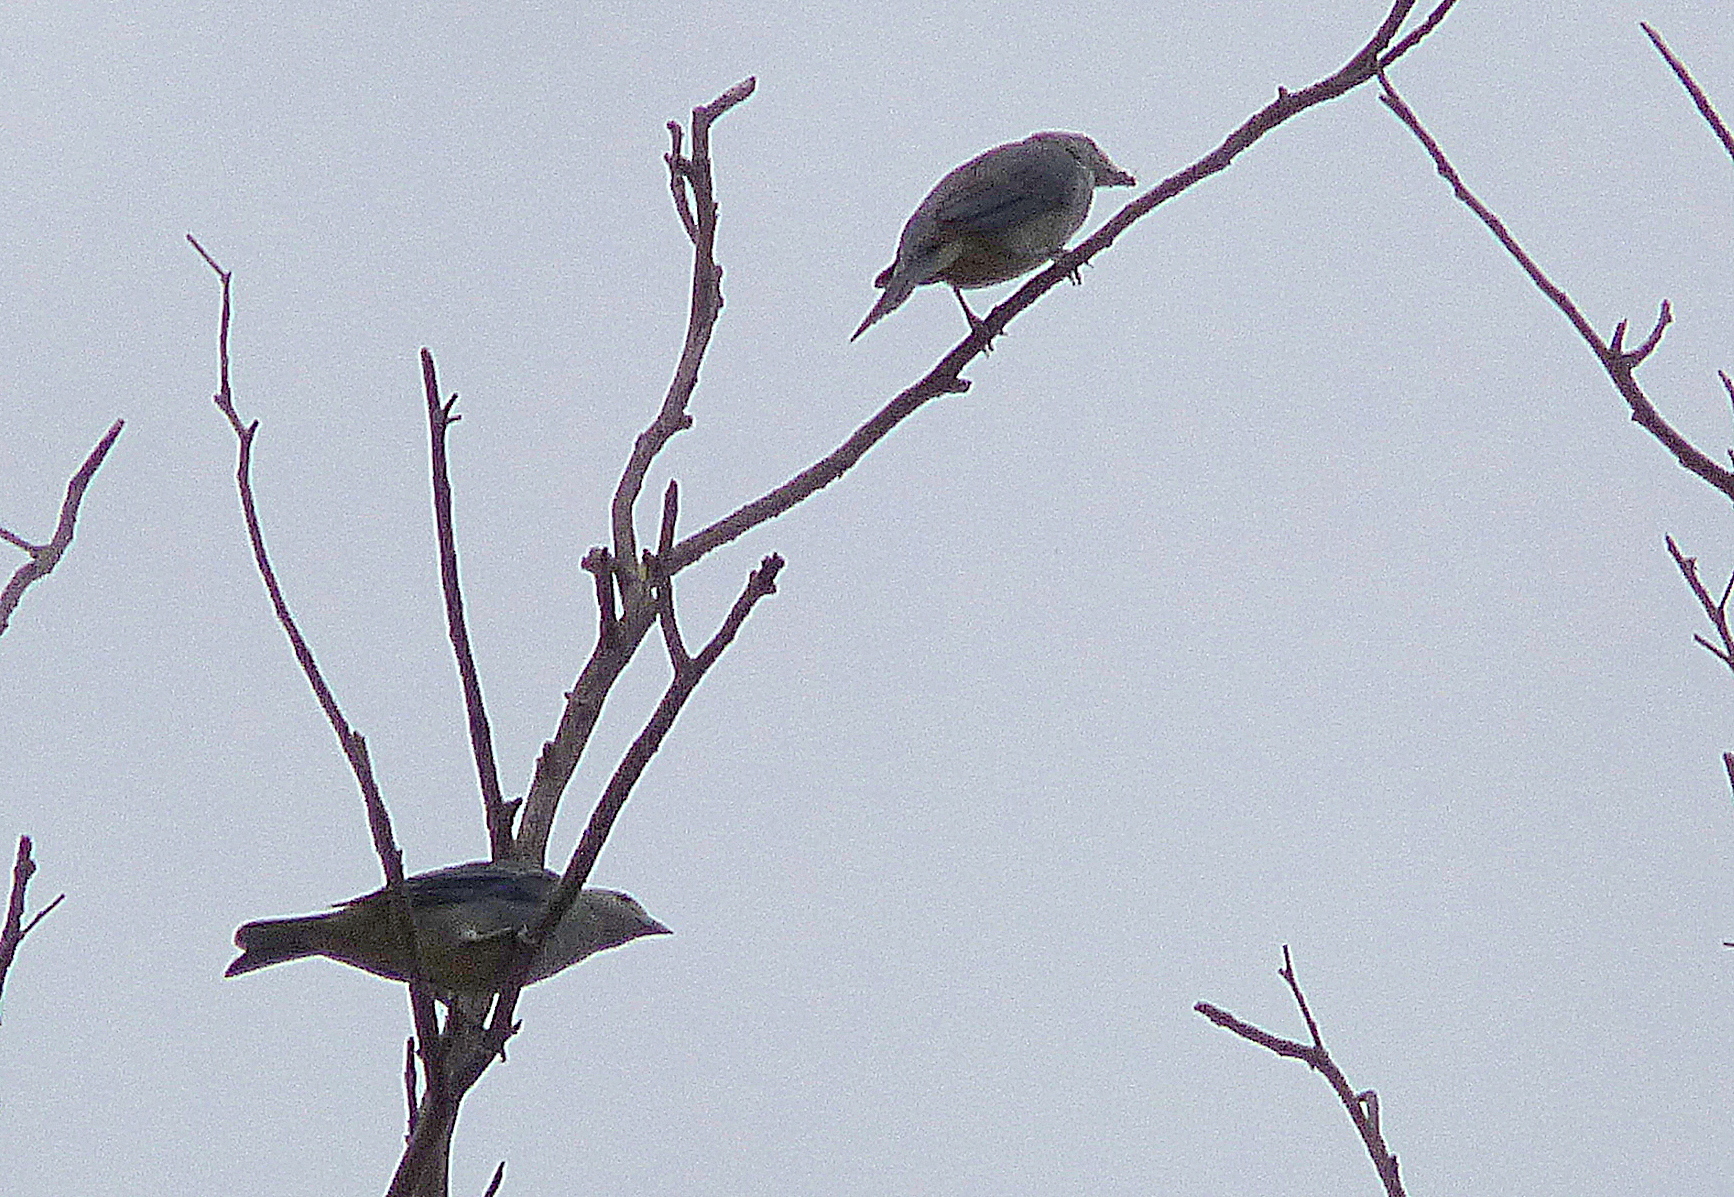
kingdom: Animalia
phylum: Chordata
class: Aves
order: Passeriformes
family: Thraupidae
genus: Thraupis
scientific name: Thraupis sayaca
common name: Sayaca tanager
